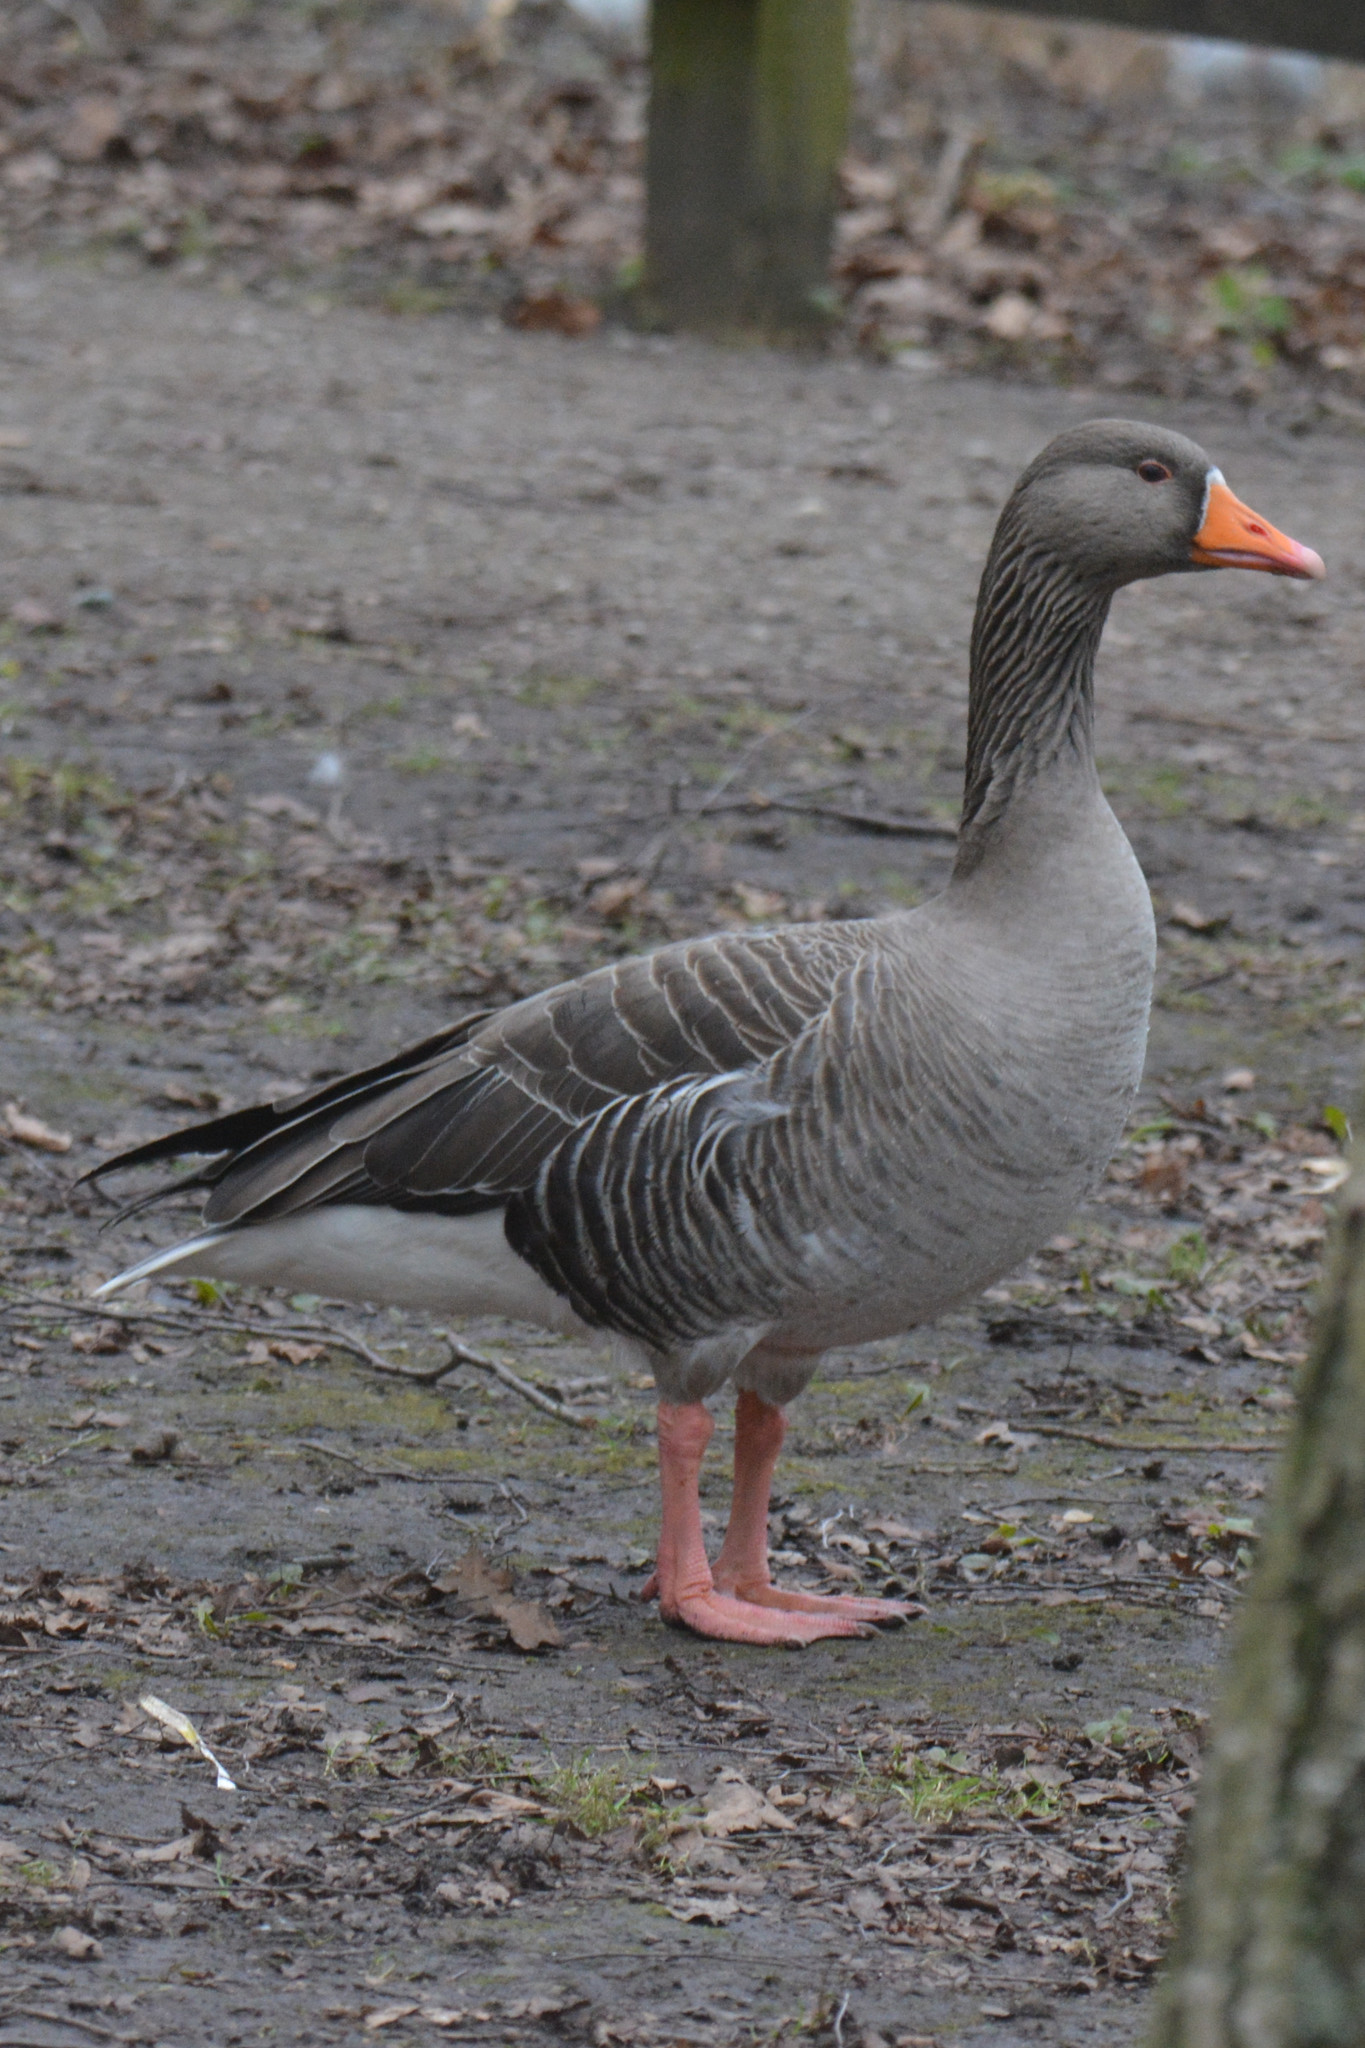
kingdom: Animalia
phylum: Chordata
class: Aves
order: Anseriformes
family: Anatidae
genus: Anser
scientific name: Anser anser
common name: Greylag goose
